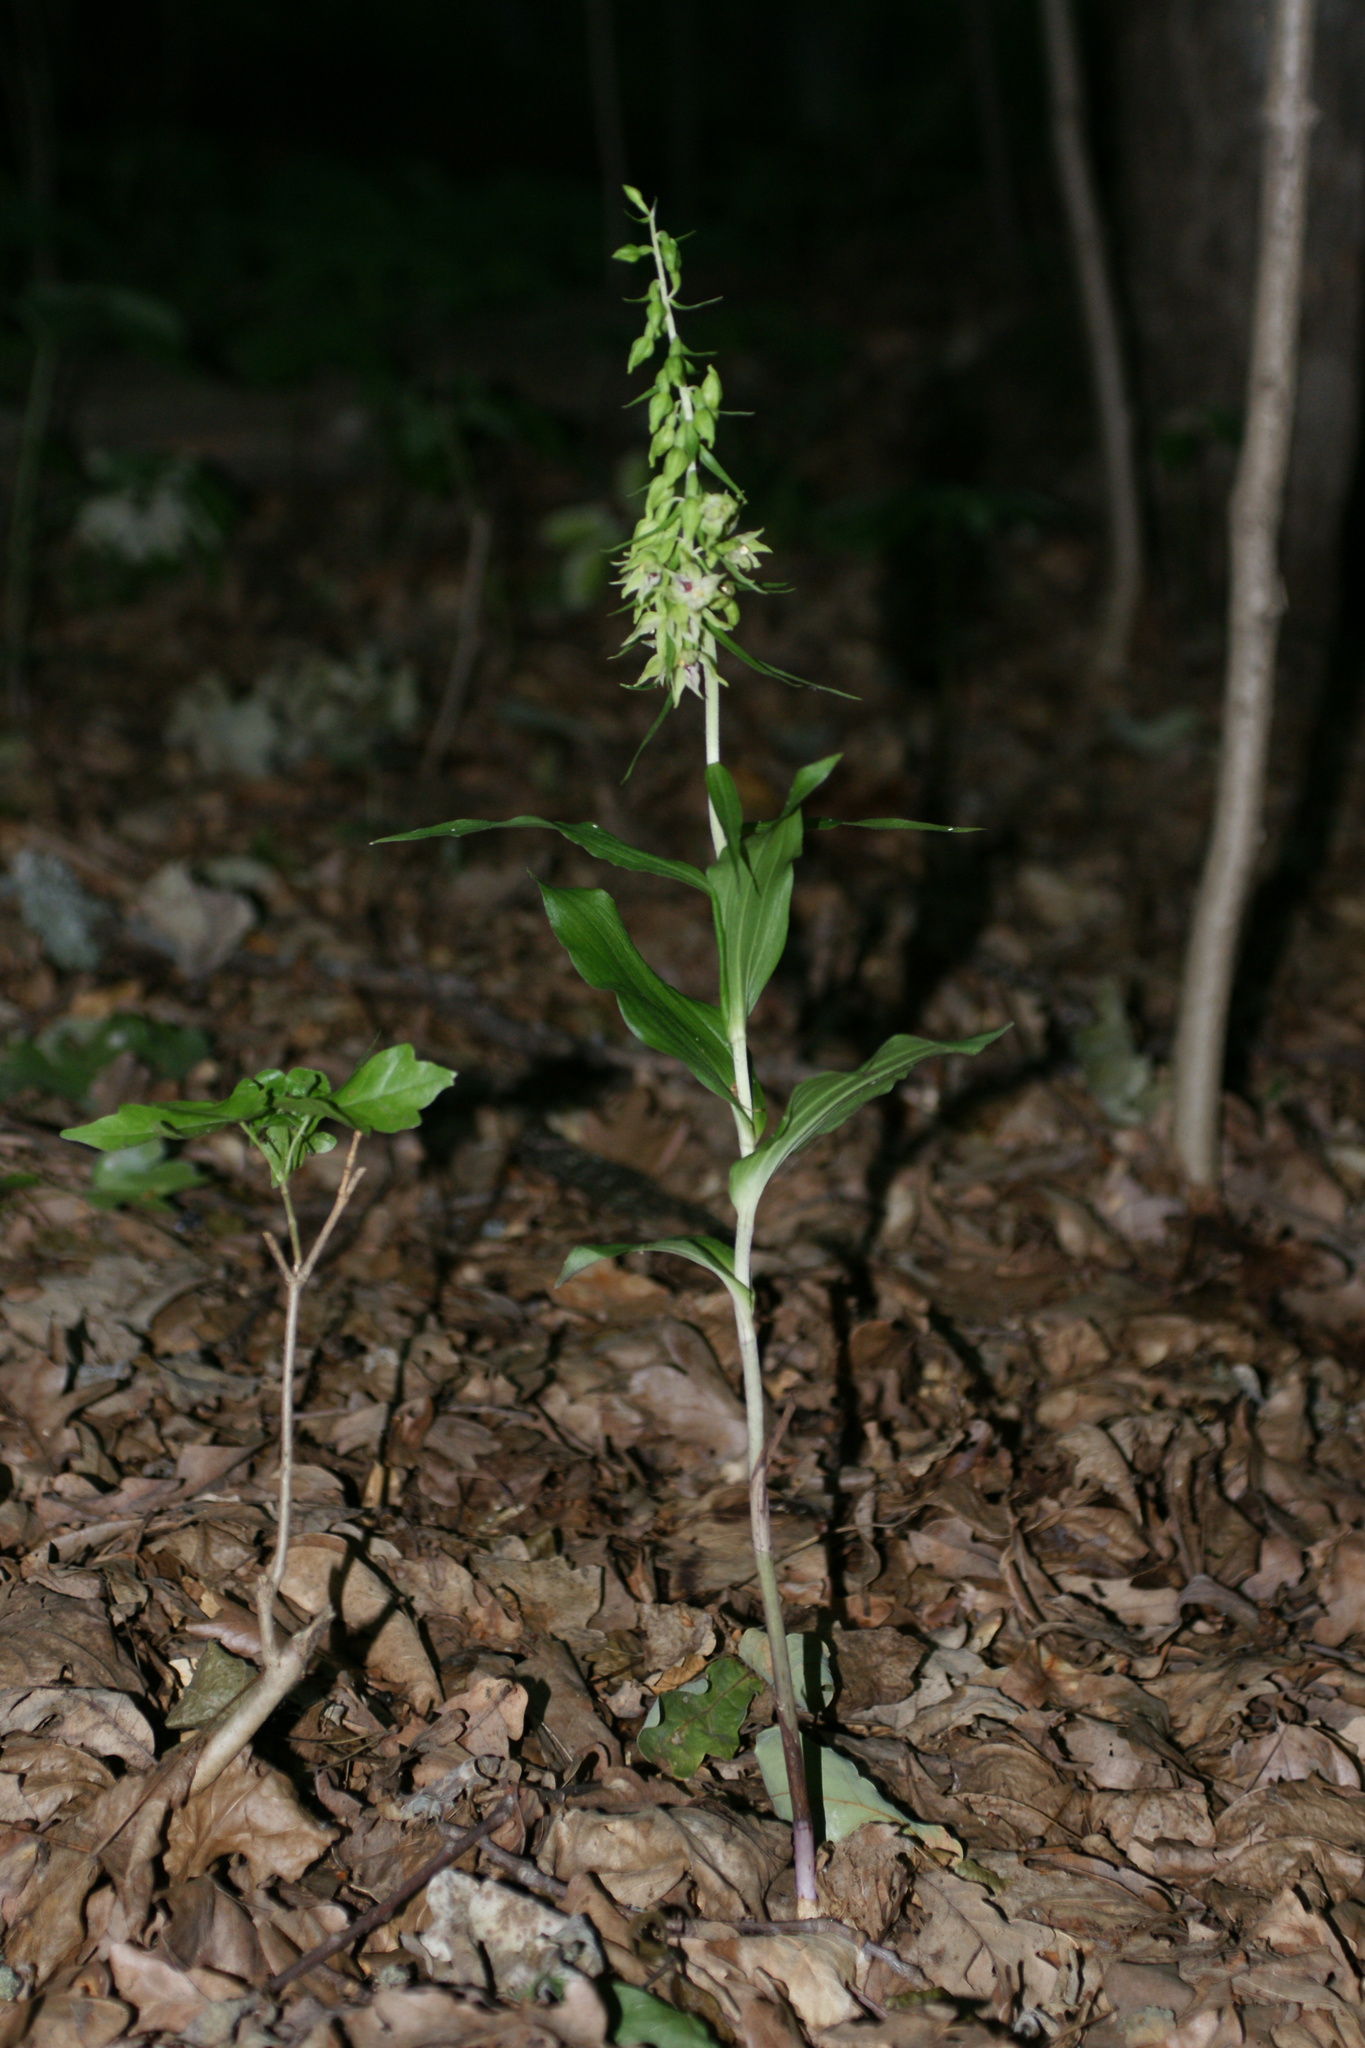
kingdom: Plantae
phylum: Tracheophyta
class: Liliopsida
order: Asparagales
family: Orchidaceae
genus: Epipactis
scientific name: Epipactis helleborine
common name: Broad-leaved helleborine
